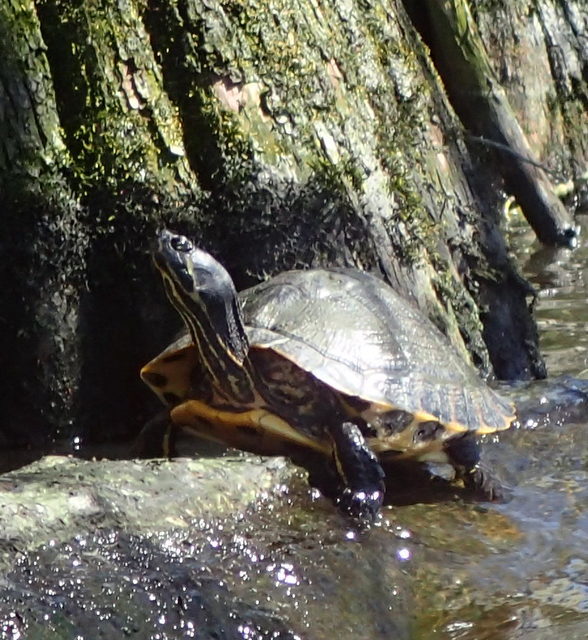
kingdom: Animalia
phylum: Chordata
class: Testudines
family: Emydidae
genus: Trachemys
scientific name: Trachemys scripta
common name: Slider
